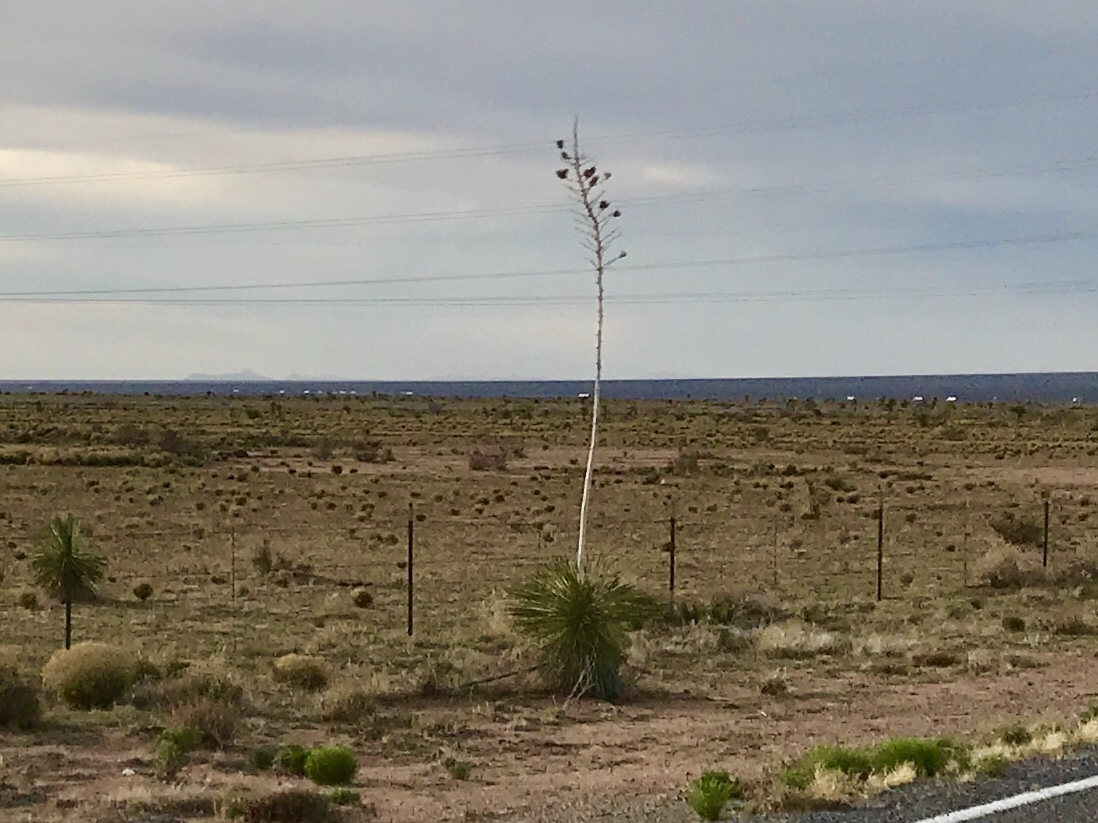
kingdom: Plantae
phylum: Tracheophyta
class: Liliopsida
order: Asparagales
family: Asparagaceae
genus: Yucca
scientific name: Yucca elata
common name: Palmella
